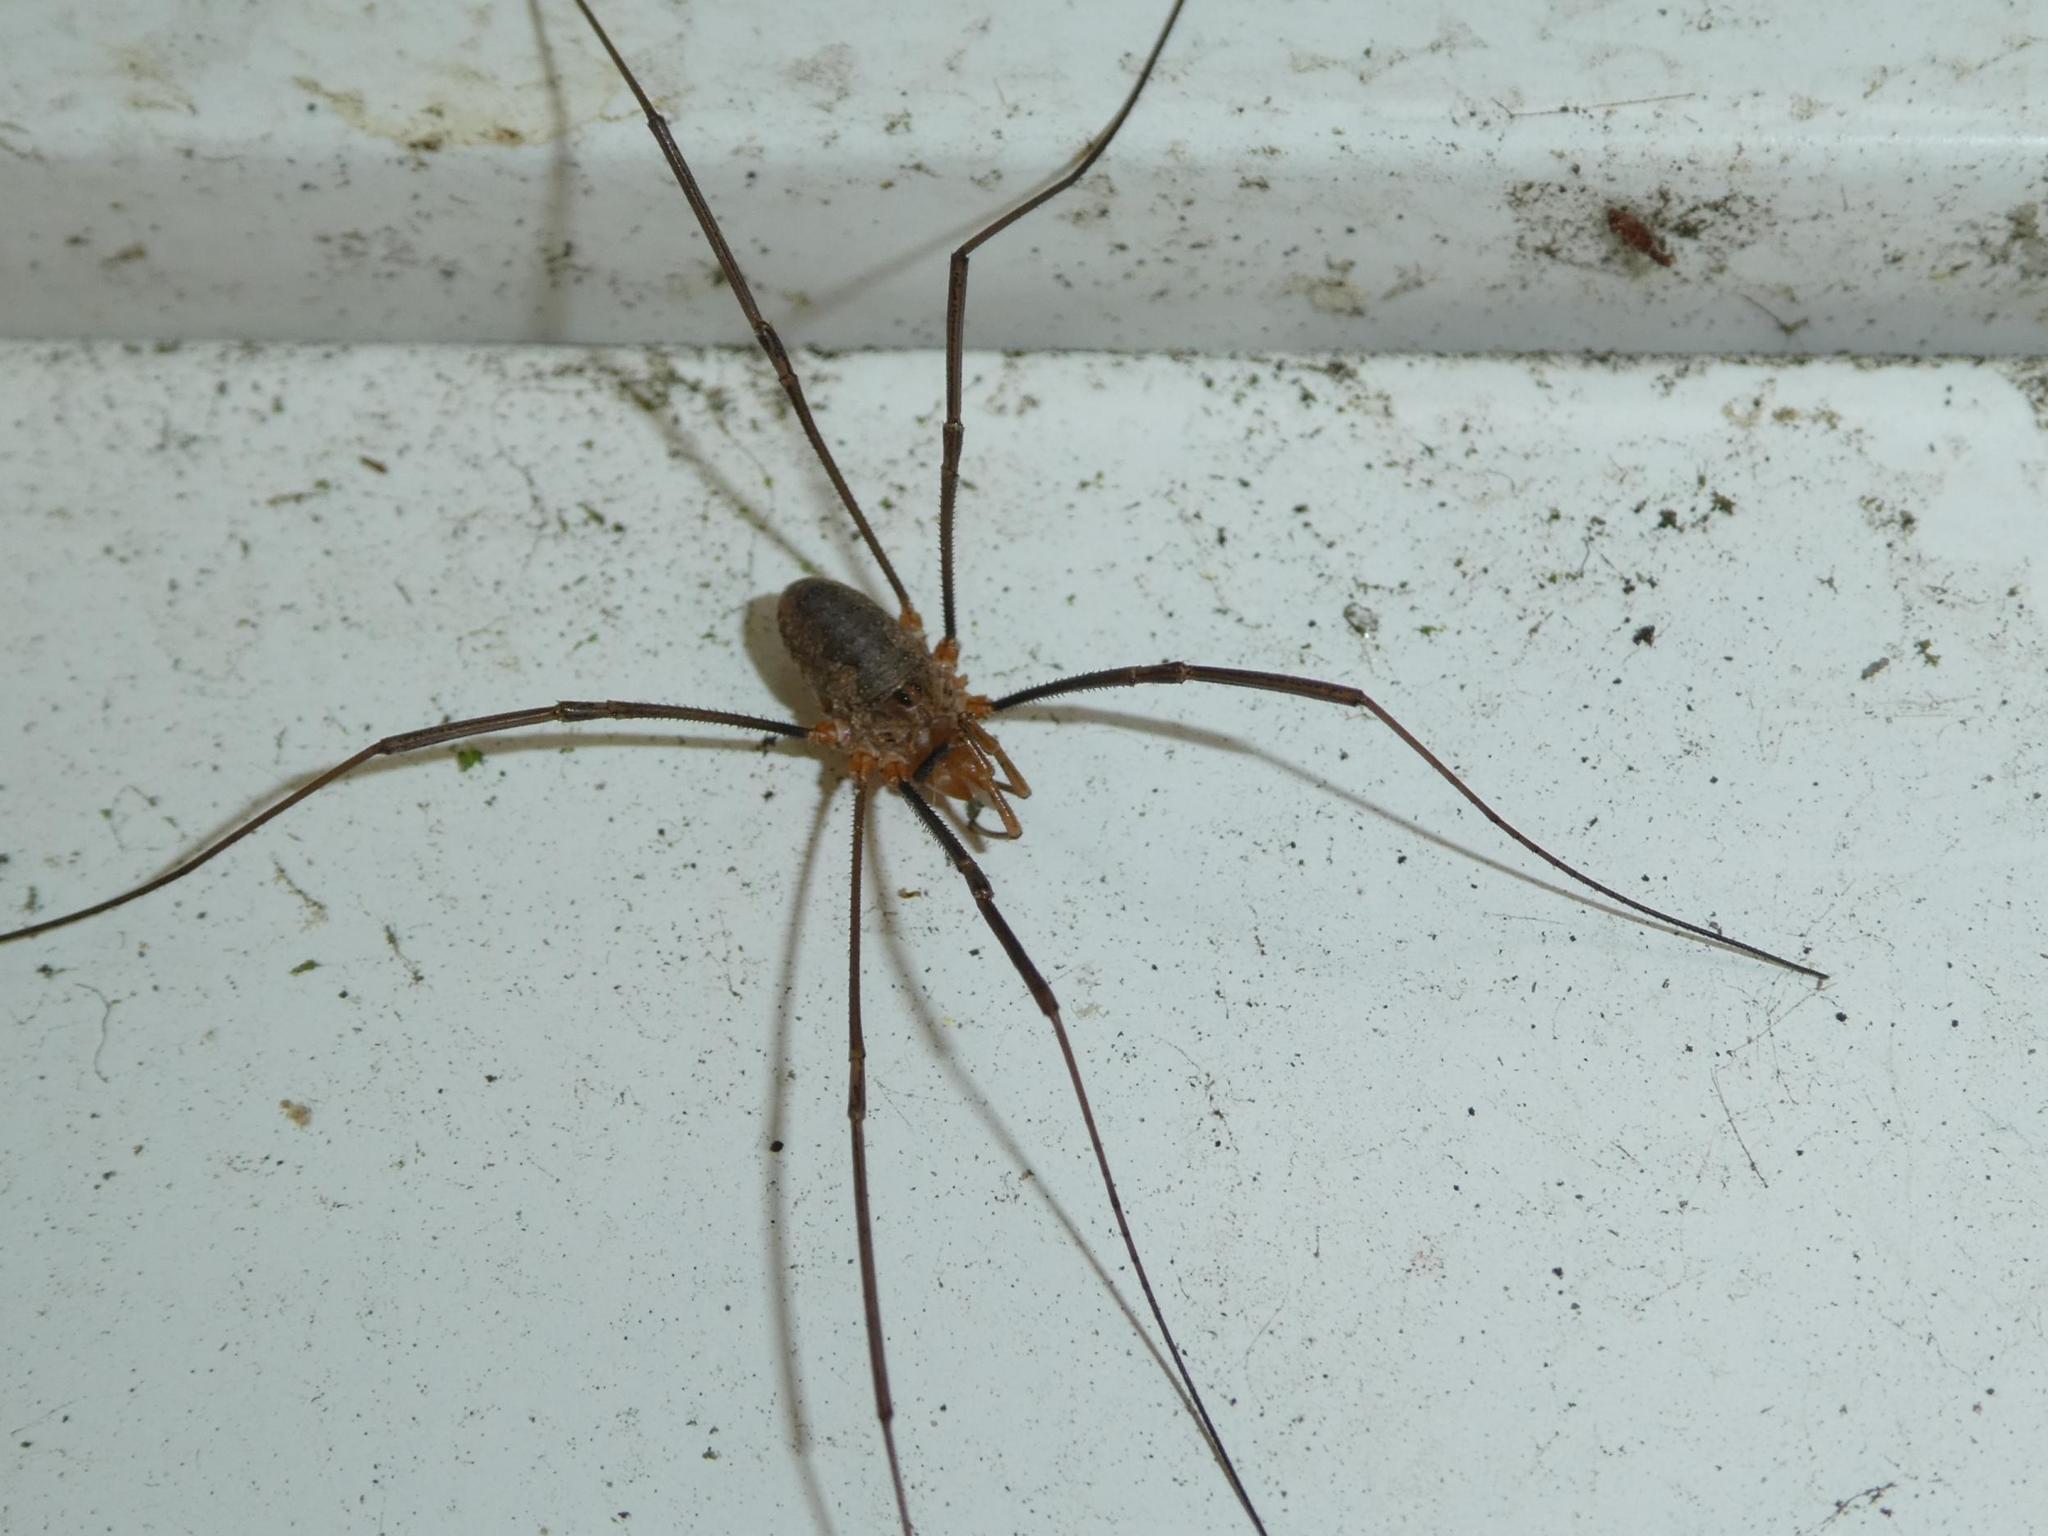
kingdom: Animalia
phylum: Arthropoda
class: Arachnida
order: Opiliones
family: Phalangiidae
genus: Phalangium
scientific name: Phalangium opilio
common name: Daddy longleg
